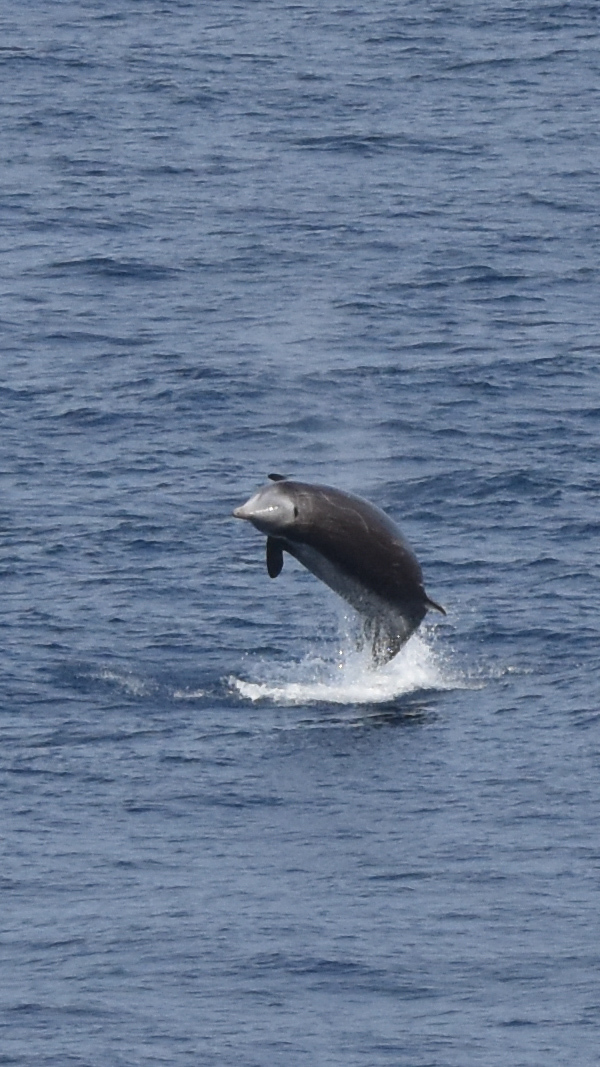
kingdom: Animalia
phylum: Chordata
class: Mammalia
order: Cetacea
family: Hyperoodontidae
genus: Ziphius
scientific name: Ziphius cavirostris
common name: Cuvier's beaked whale
